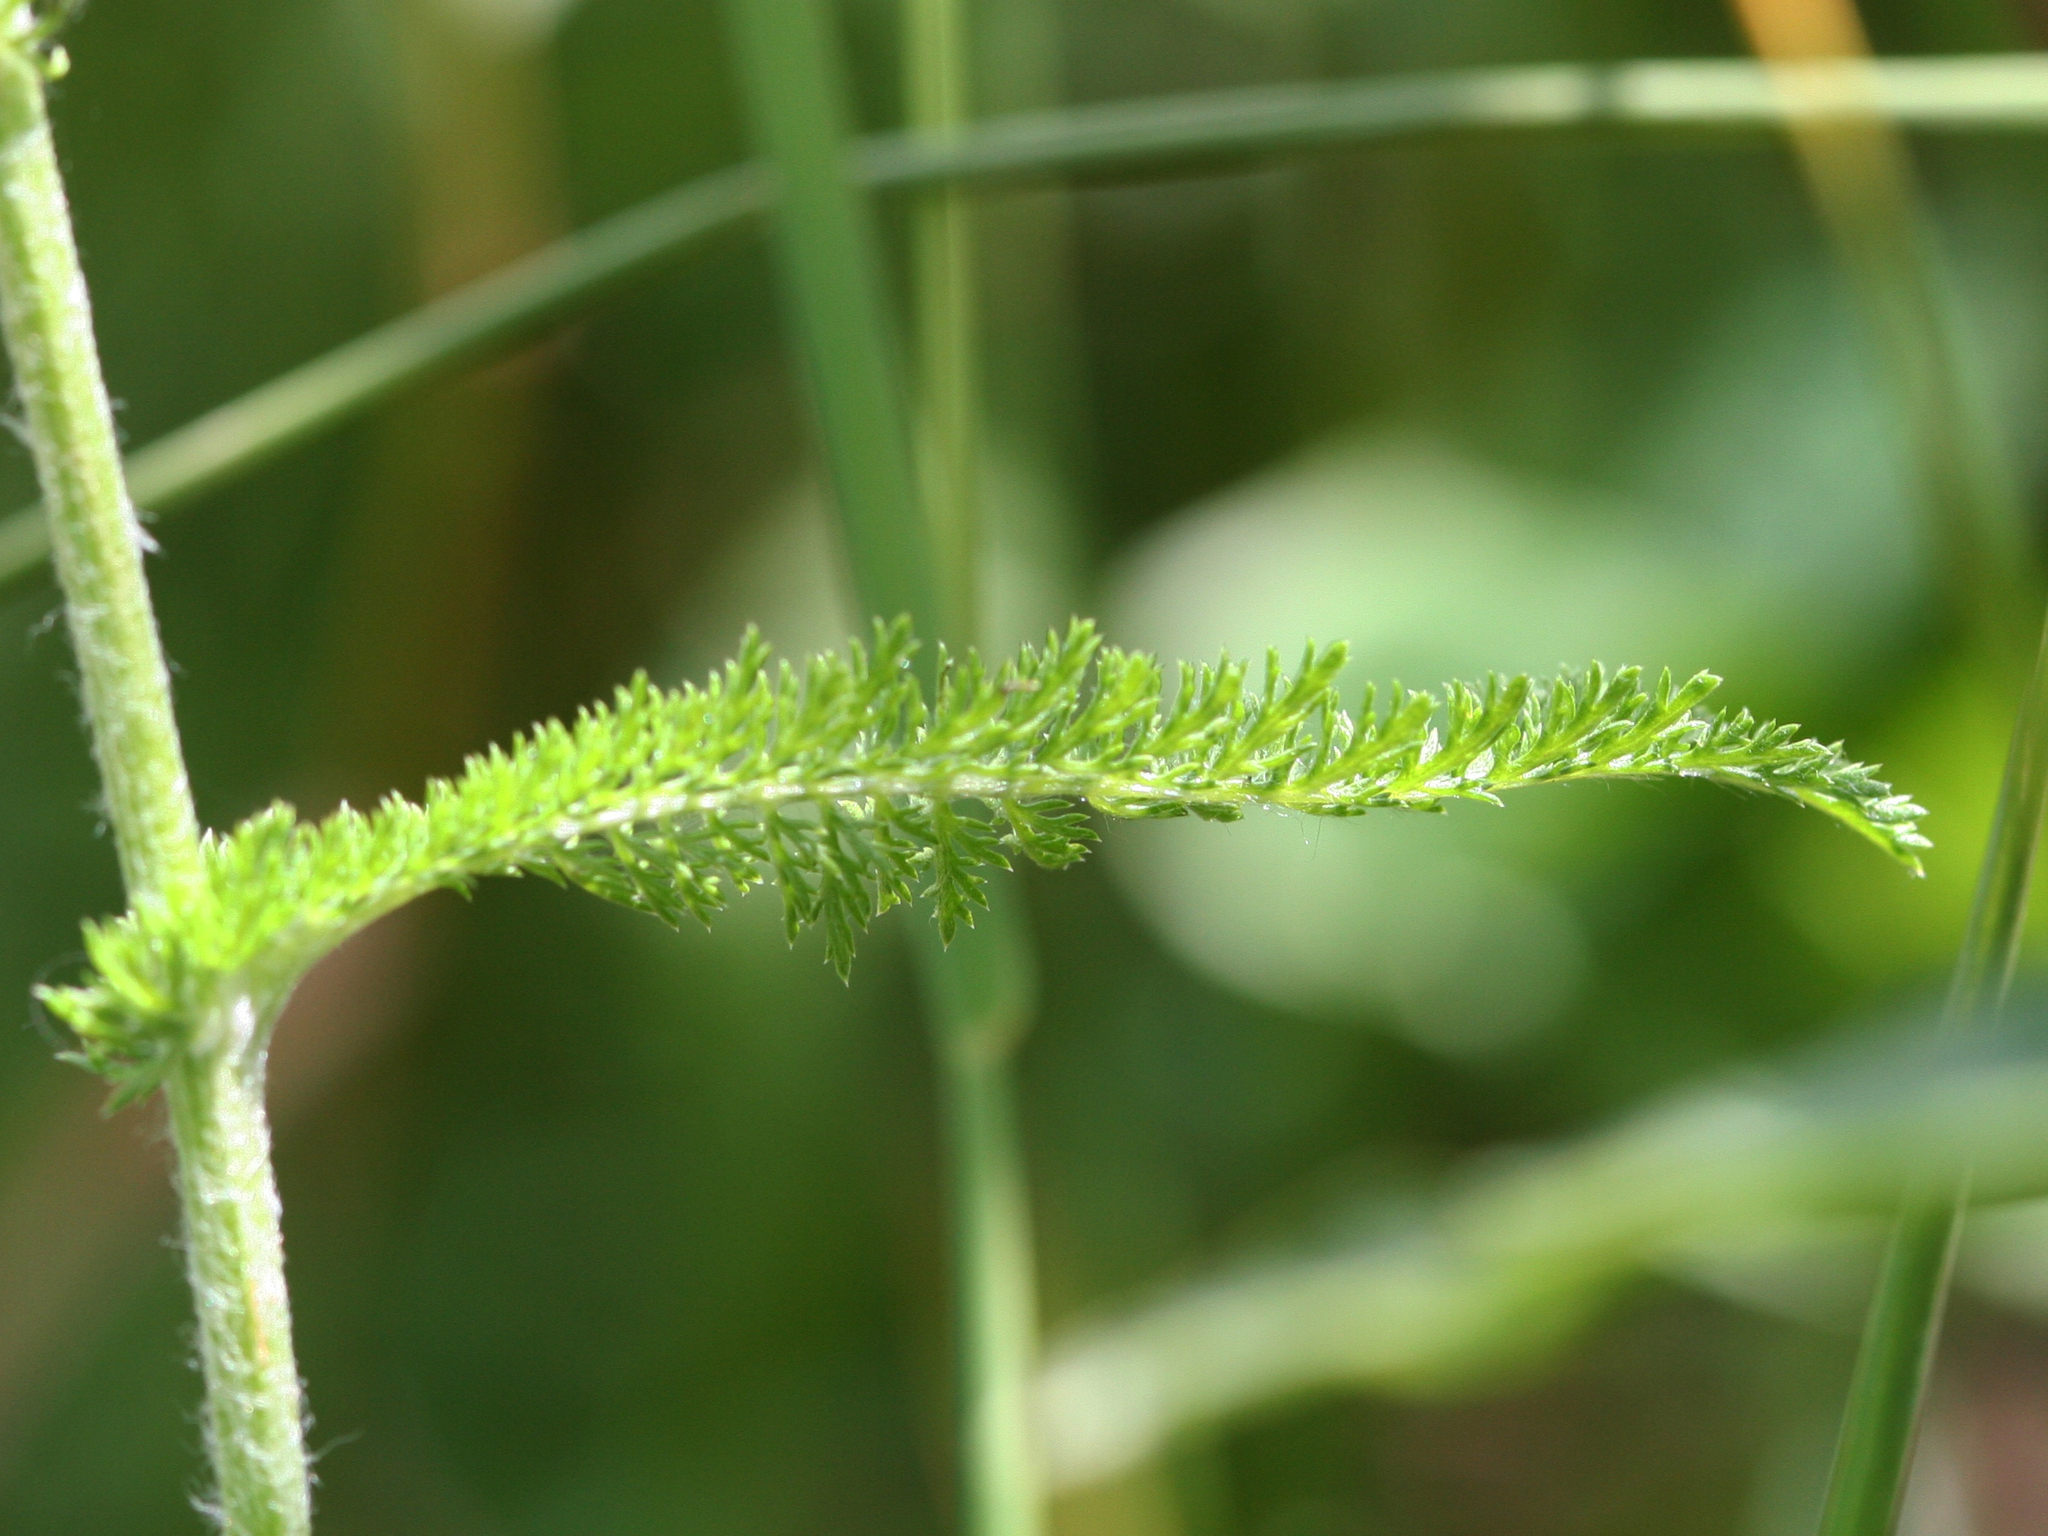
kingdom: Plantae
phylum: Tracheophyta
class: Magnoliopsida
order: Asterales
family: Asteraceae
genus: Achillea
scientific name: Achillea millefolium
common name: Yarrow
